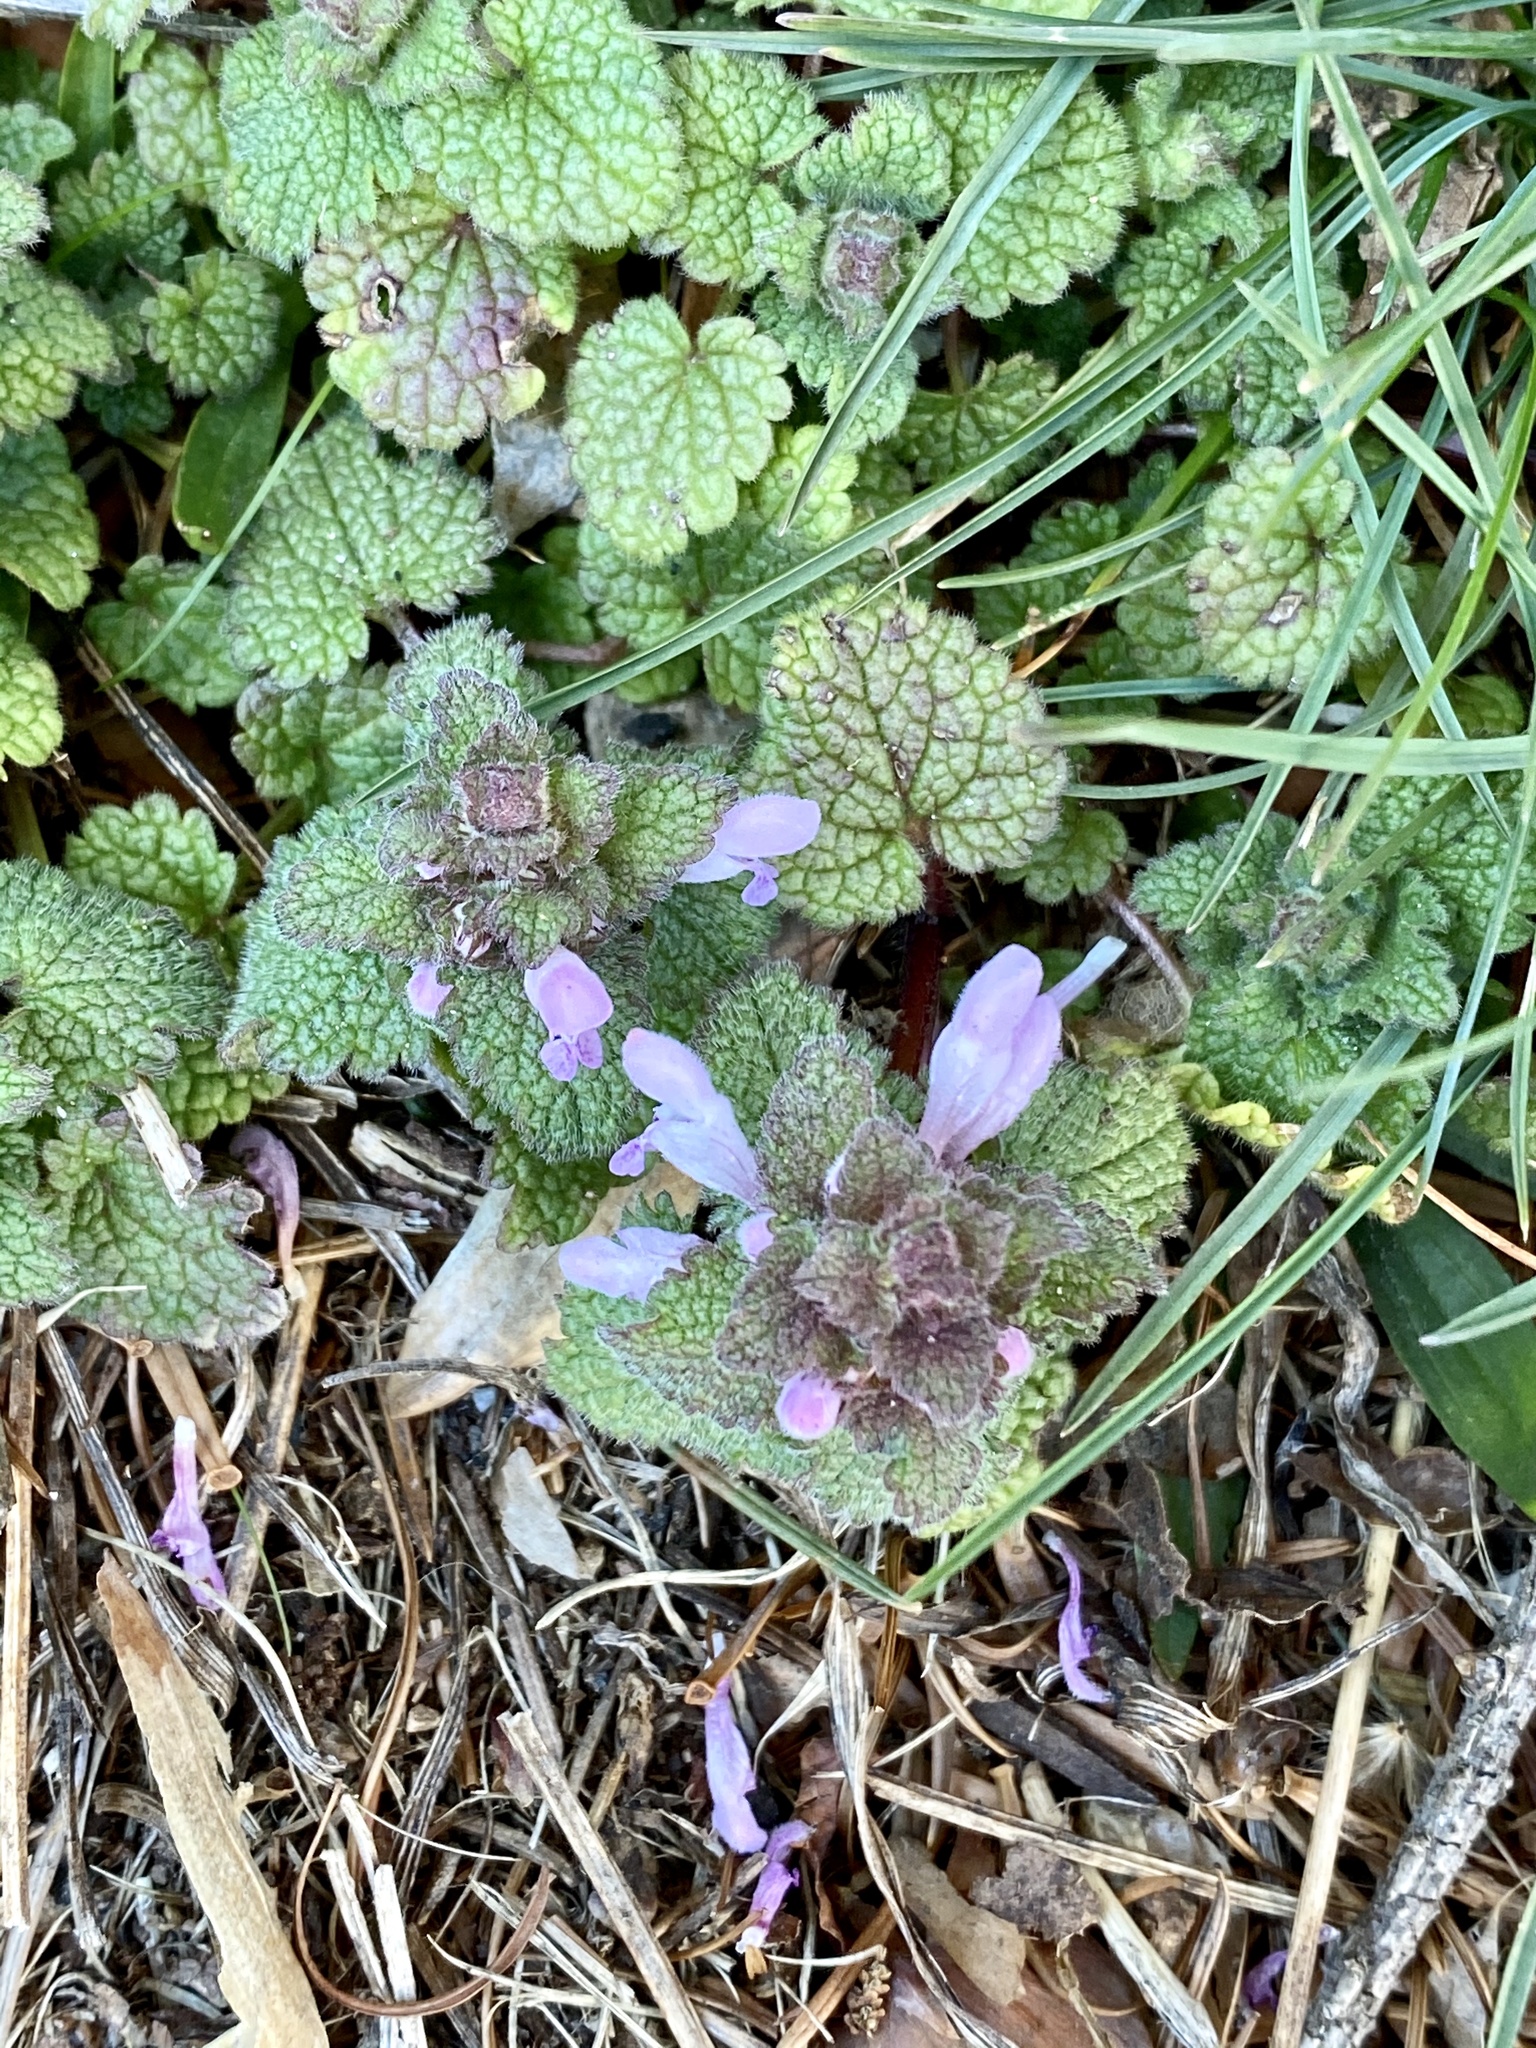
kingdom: Plantae
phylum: Tracheophyta
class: Magnoliopsida
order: Lamiales
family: Lamiaceae
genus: Lamium
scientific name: Lamium purpureum
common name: Red dead-nettle
